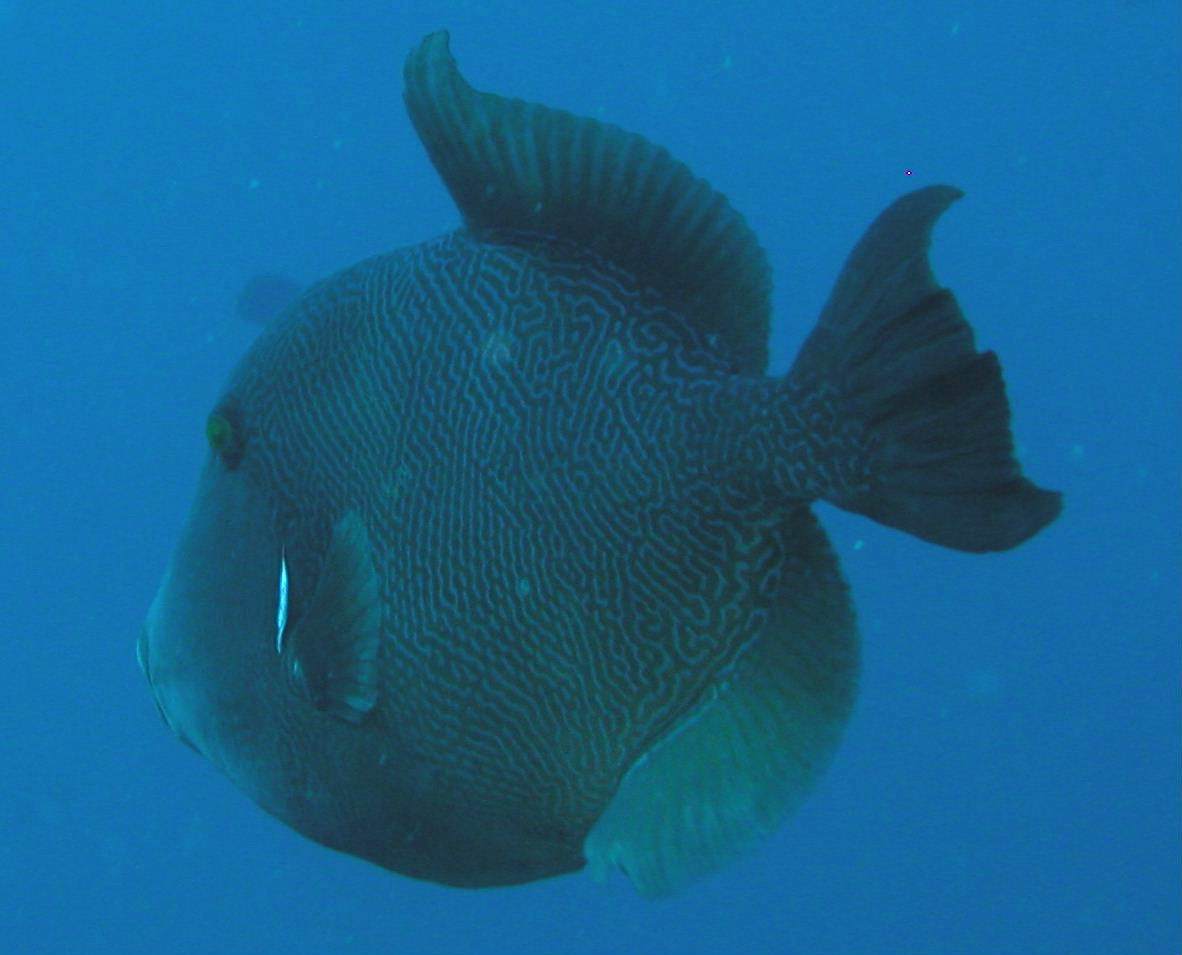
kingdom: Animalia
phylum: Chordata
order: Tetraodontiformes
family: Balistidae
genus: Pseudobalistes
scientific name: Pseudobalistes naufragium
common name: Blunthead triggerfish
